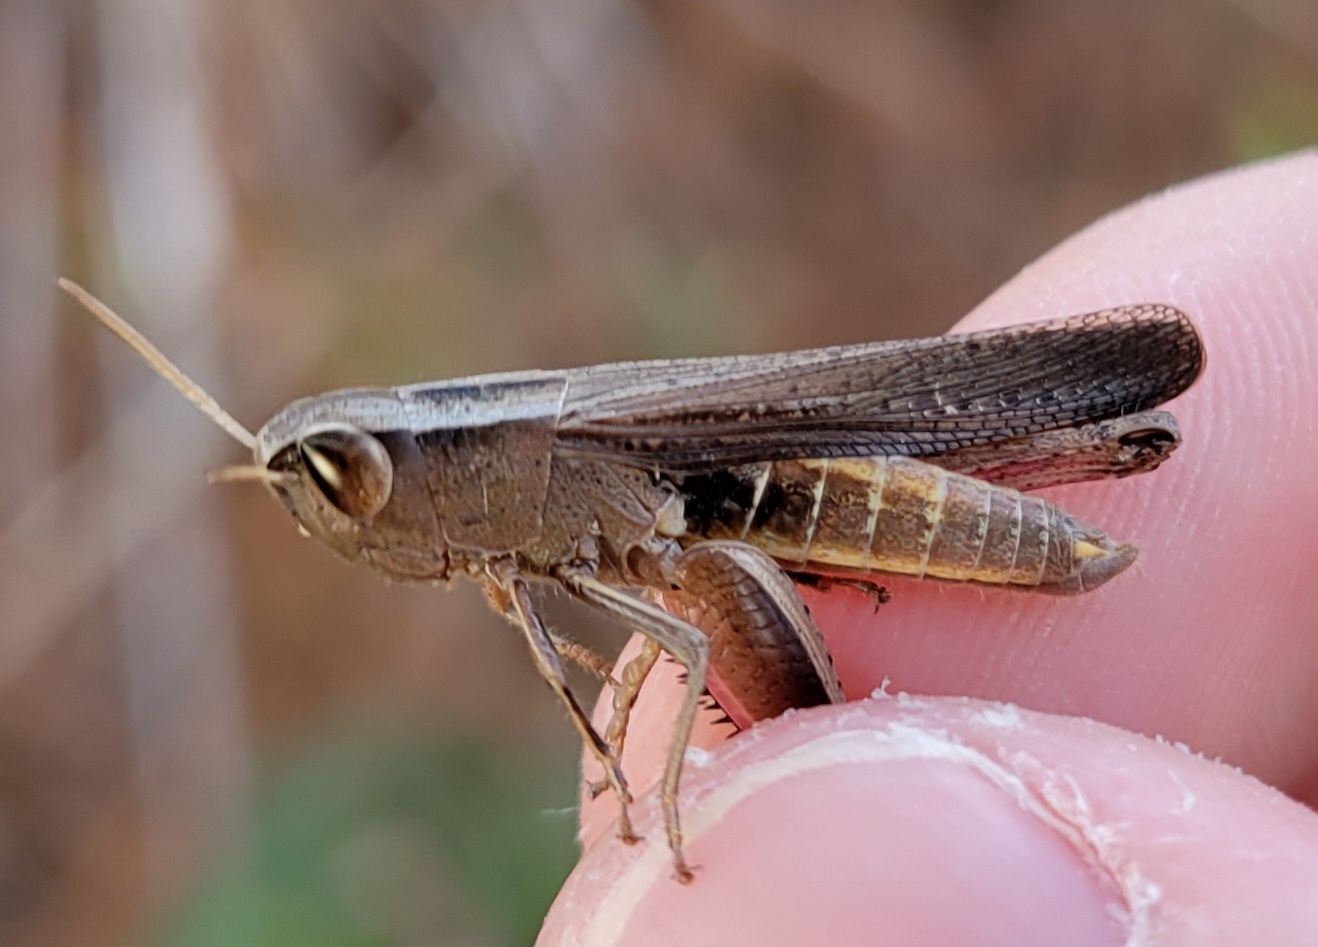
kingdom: Animalia
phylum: Arthropoda
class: Insecta
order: Orthoptera
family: Acrididae
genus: Amblytropidia
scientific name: Amblytropidia mysteca
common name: Brown winter grasshopper
